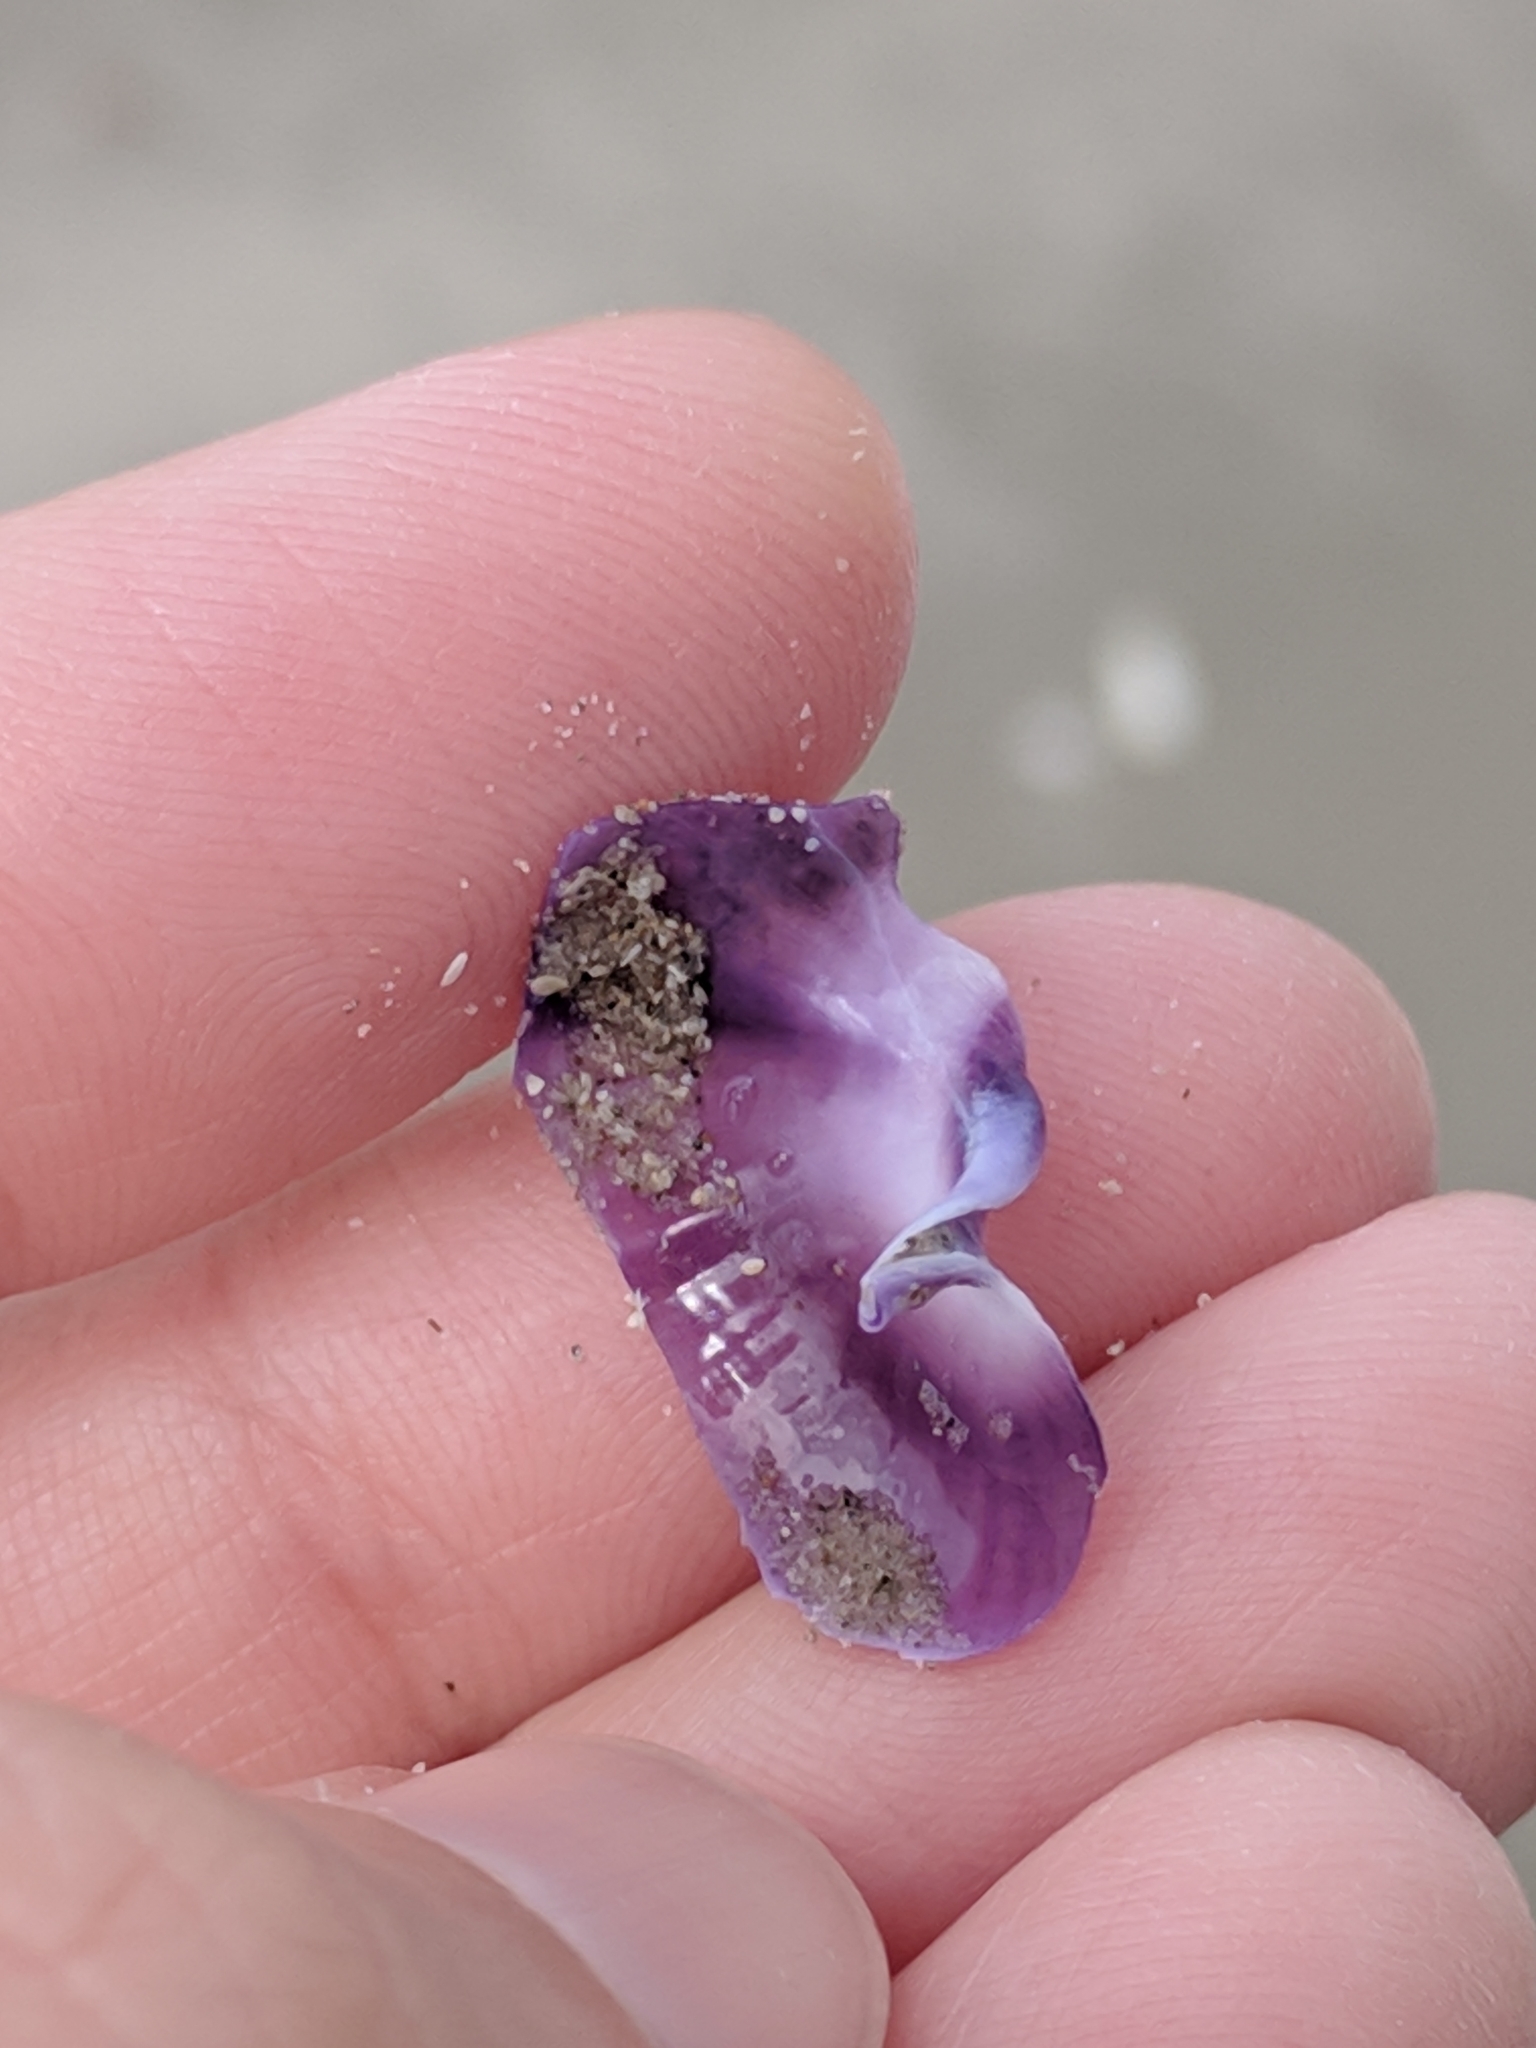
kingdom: Animalia
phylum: Mollusca
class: Gastropoda
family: Epitoniidae
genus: Janthina
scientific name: Janthina janthina
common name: Common janthina
